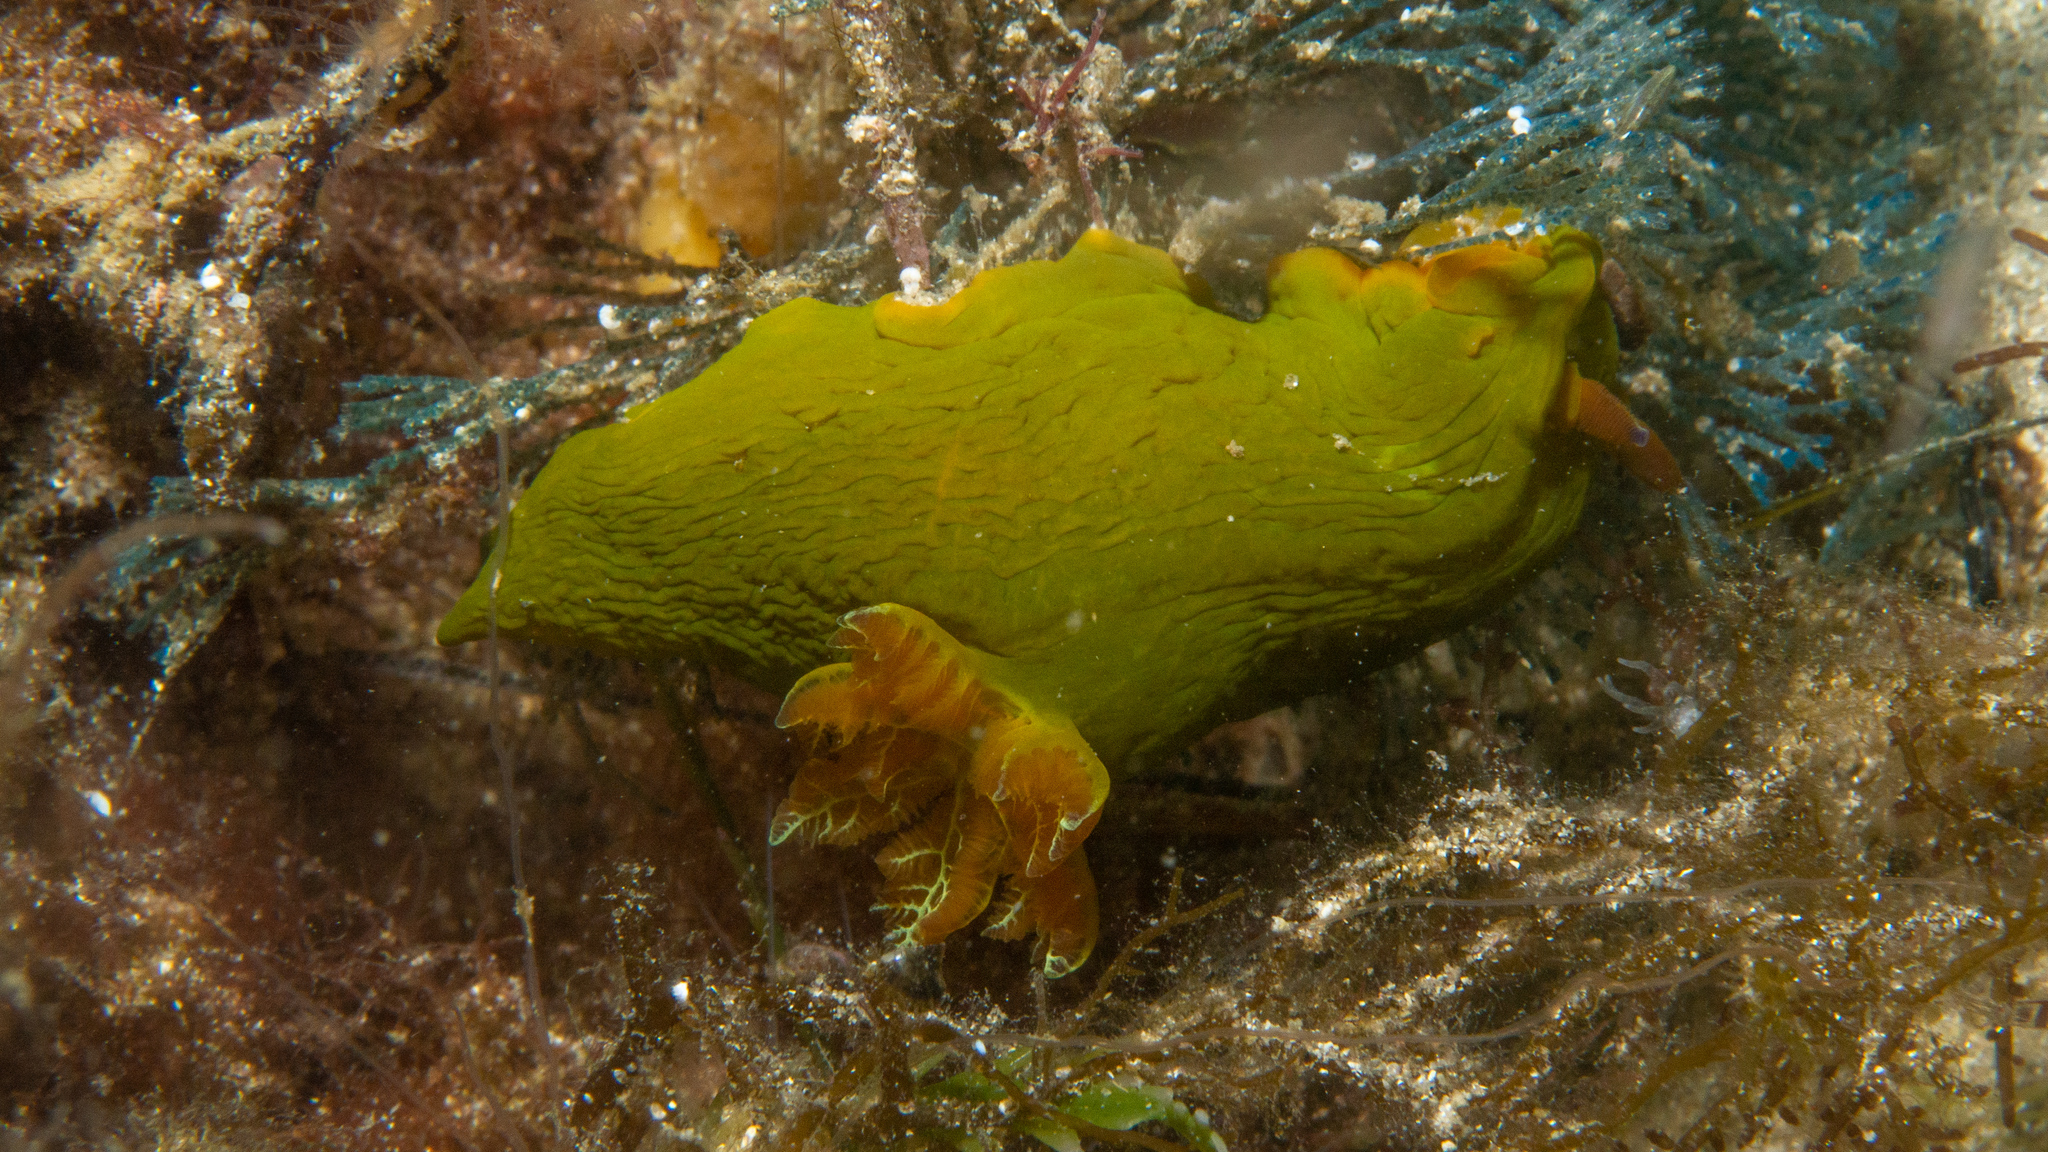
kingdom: Animalia
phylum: Mollusca
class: Gastropoda
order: Nudibranchia
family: Polyceridae
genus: Tambja
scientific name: Tambja dracomus
